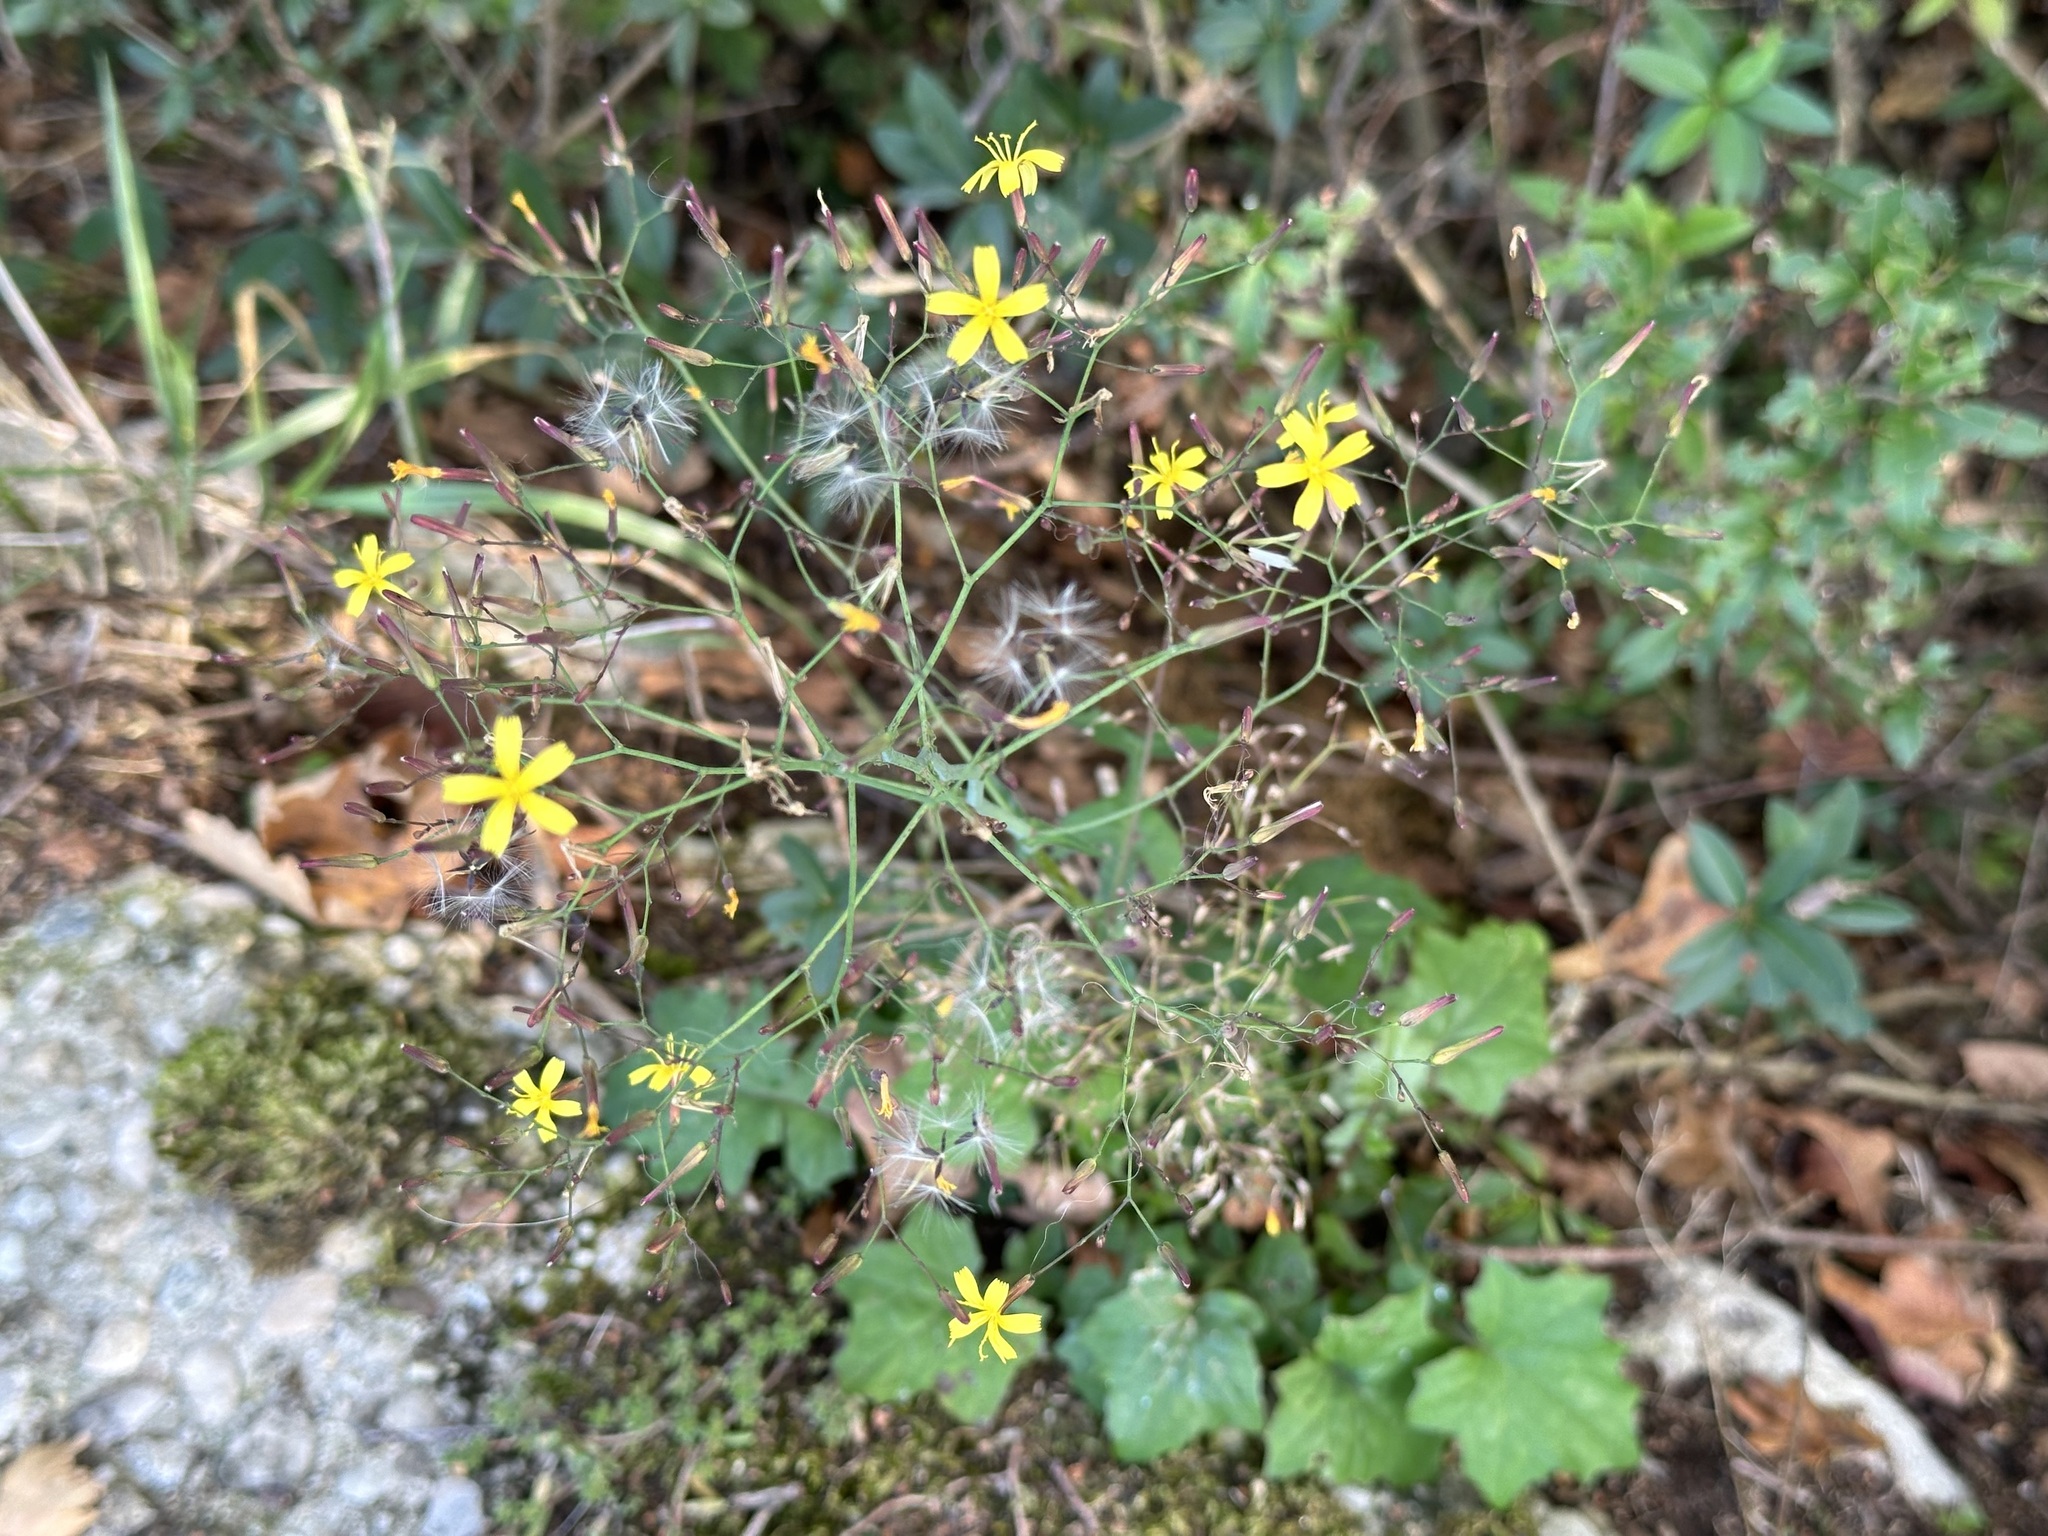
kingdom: Plantae
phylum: Tracheophyta
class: Magnoliopsida
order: Asterales
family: Asteraceae
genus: Mycelis
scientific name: Mycelis muralis
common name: Wall lettuce
